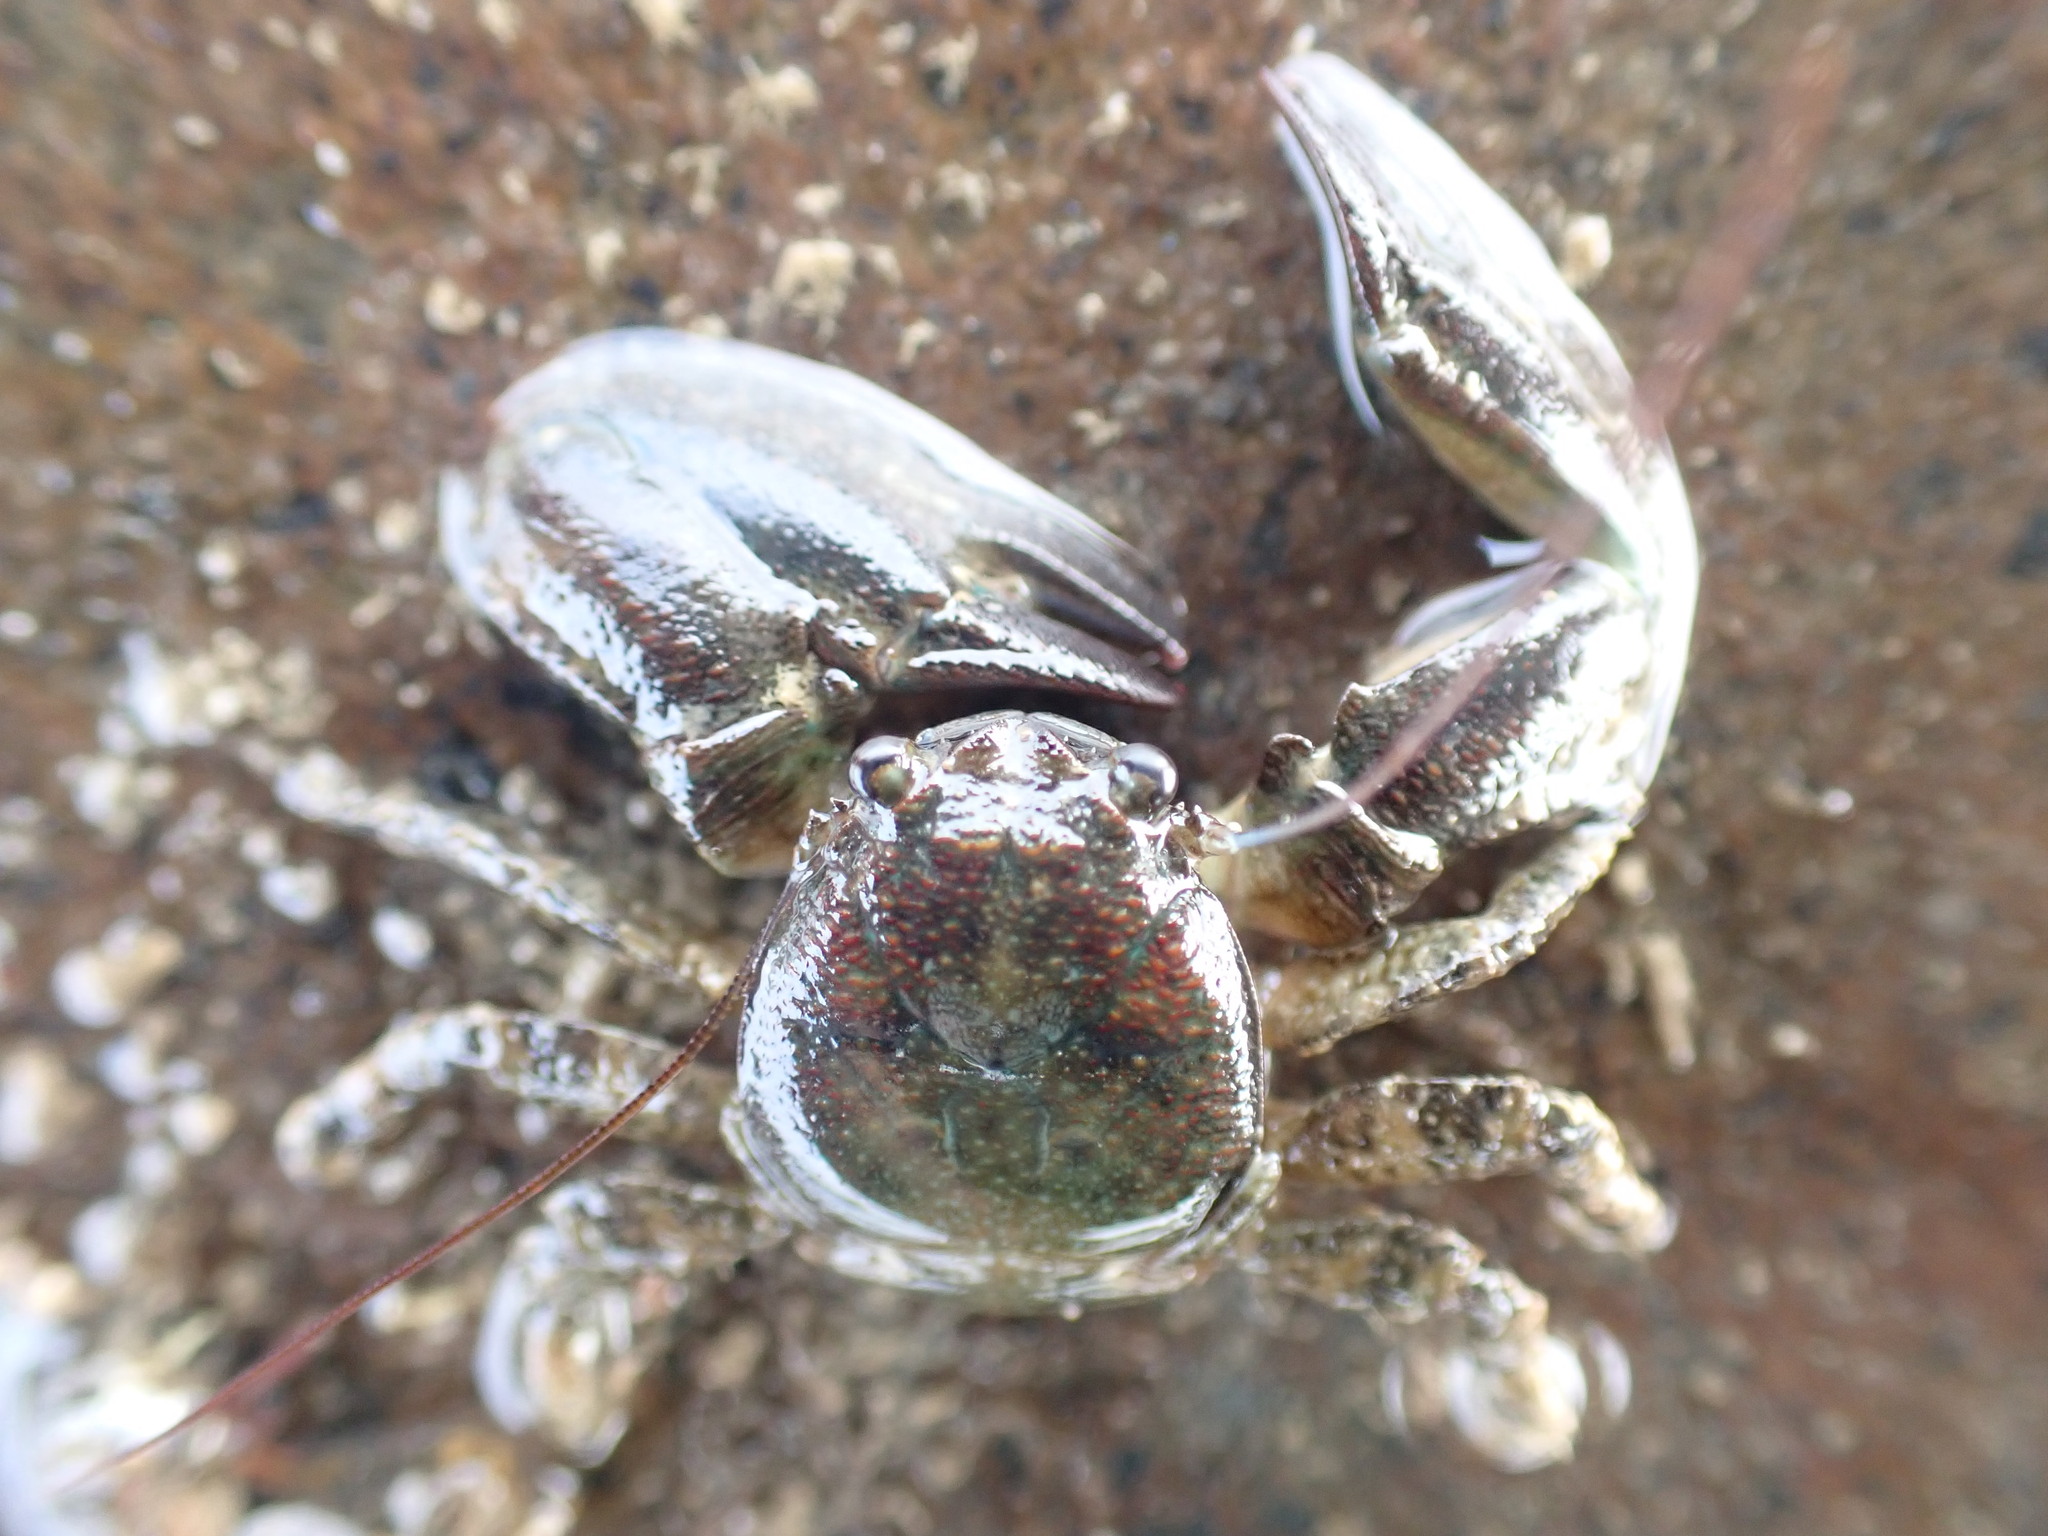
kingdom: Animalia
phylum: Arthropoda
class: Malacostraca
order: Decapoda
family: Porcellanidae
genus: Petrolisthes
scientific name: Petrolisthes elongatus
